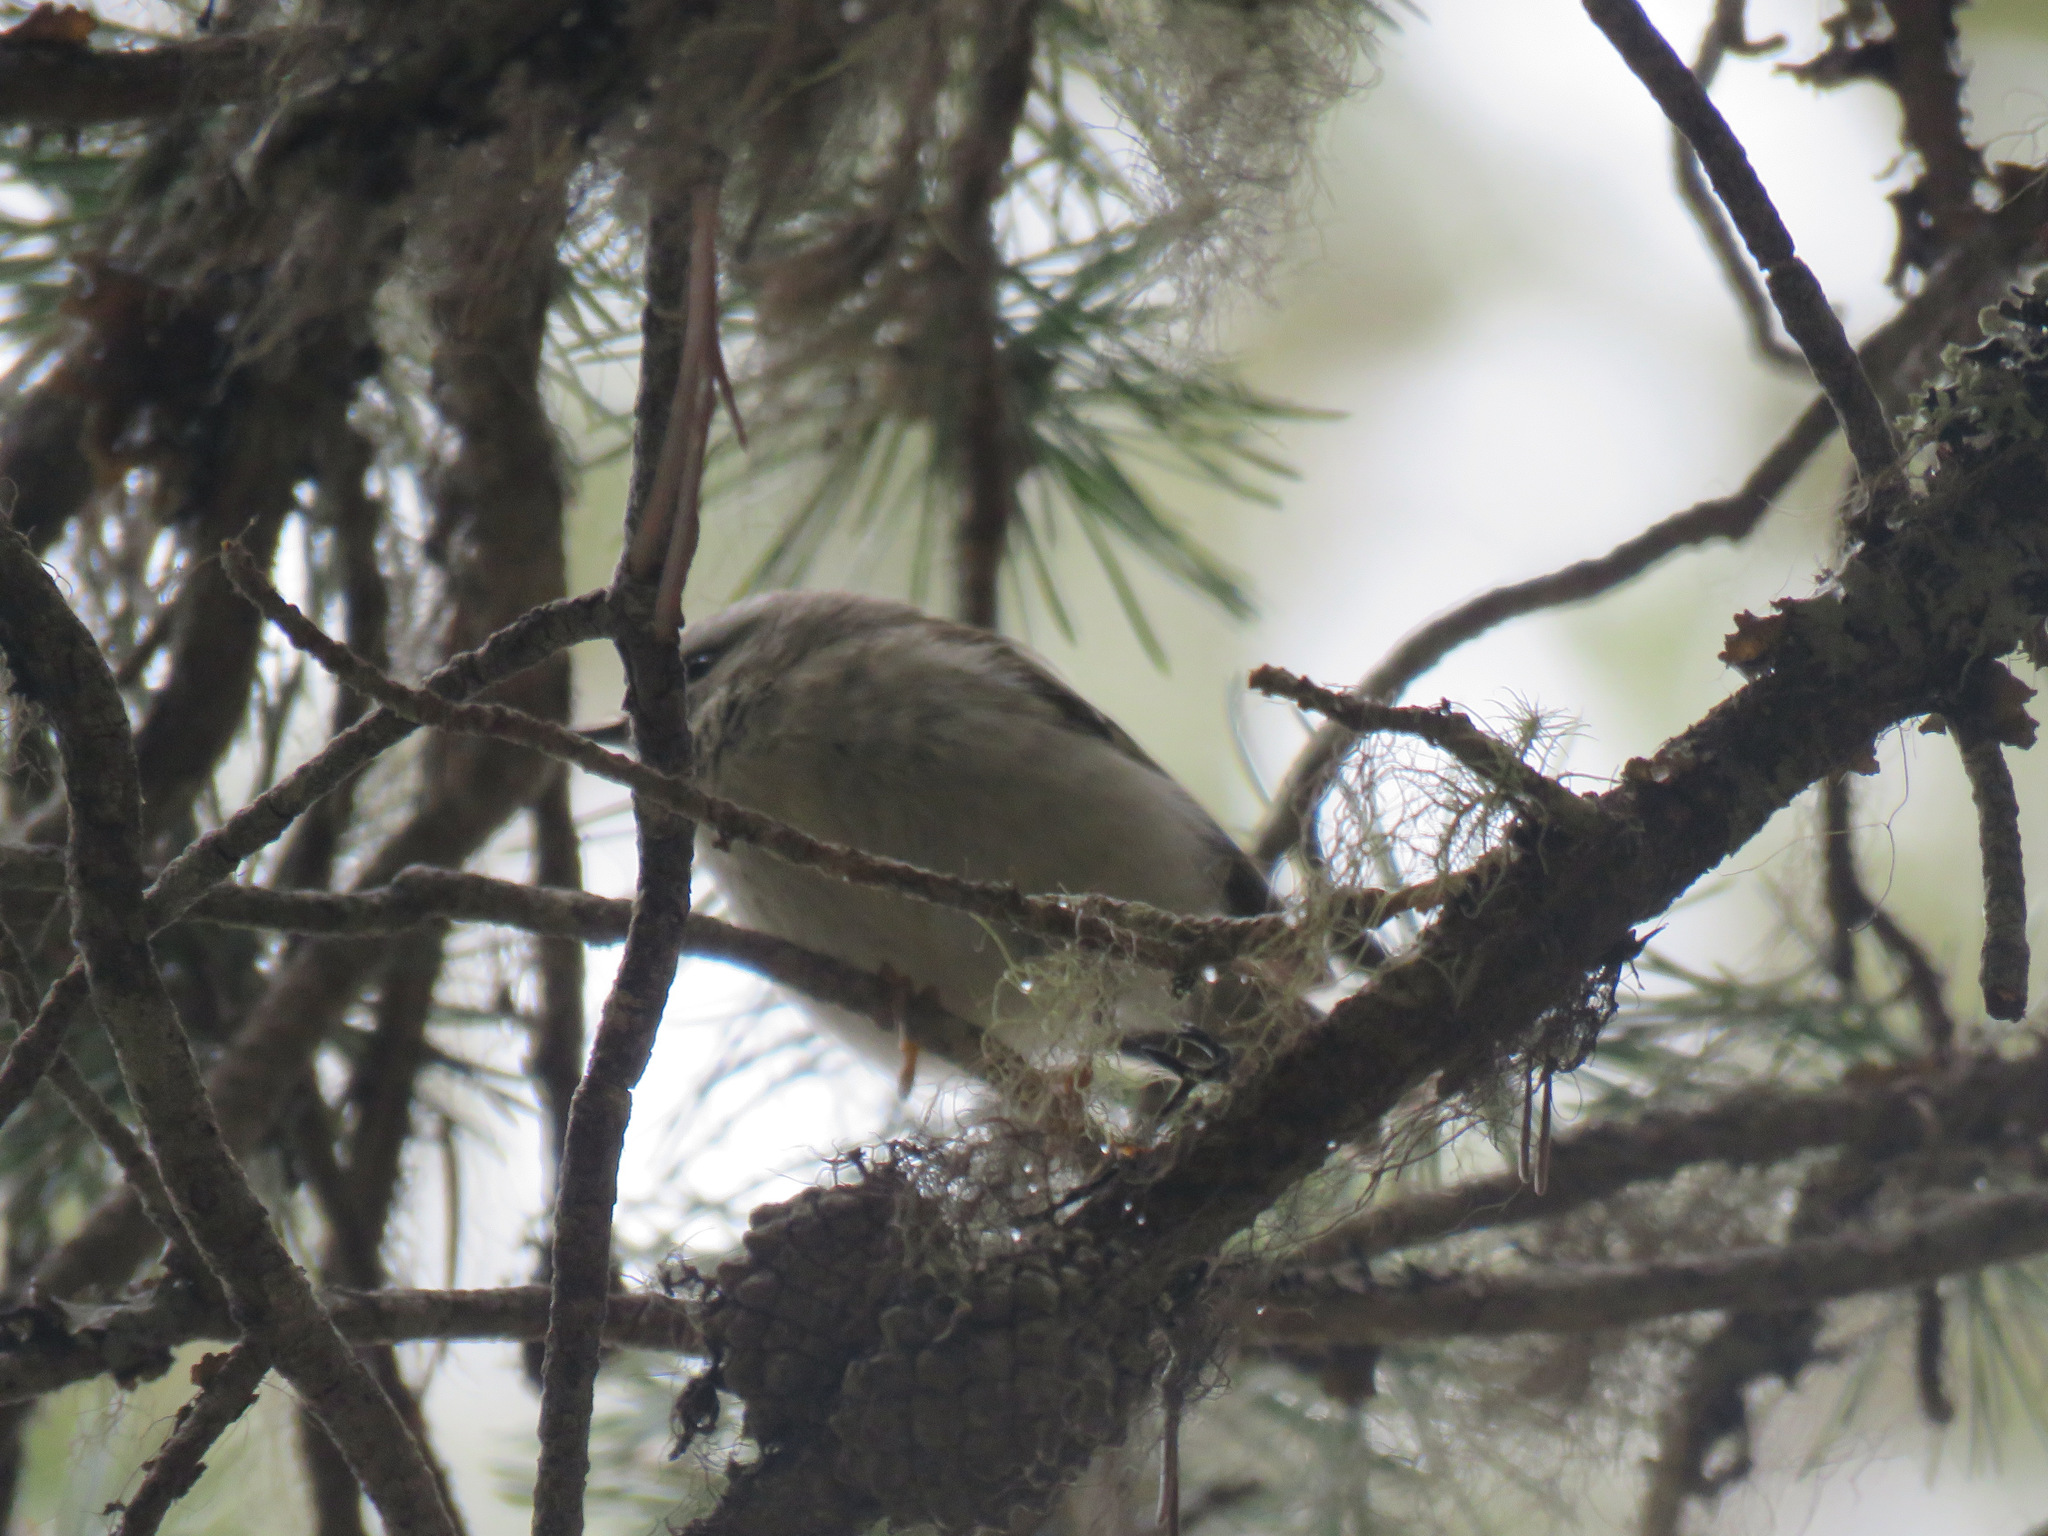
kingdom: Animalia
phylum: Chordata
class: Aves
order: Passeriformes
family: Regulidae
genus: Regulus
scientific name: Regulus satrapa
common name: Golden-crowned kinglet
